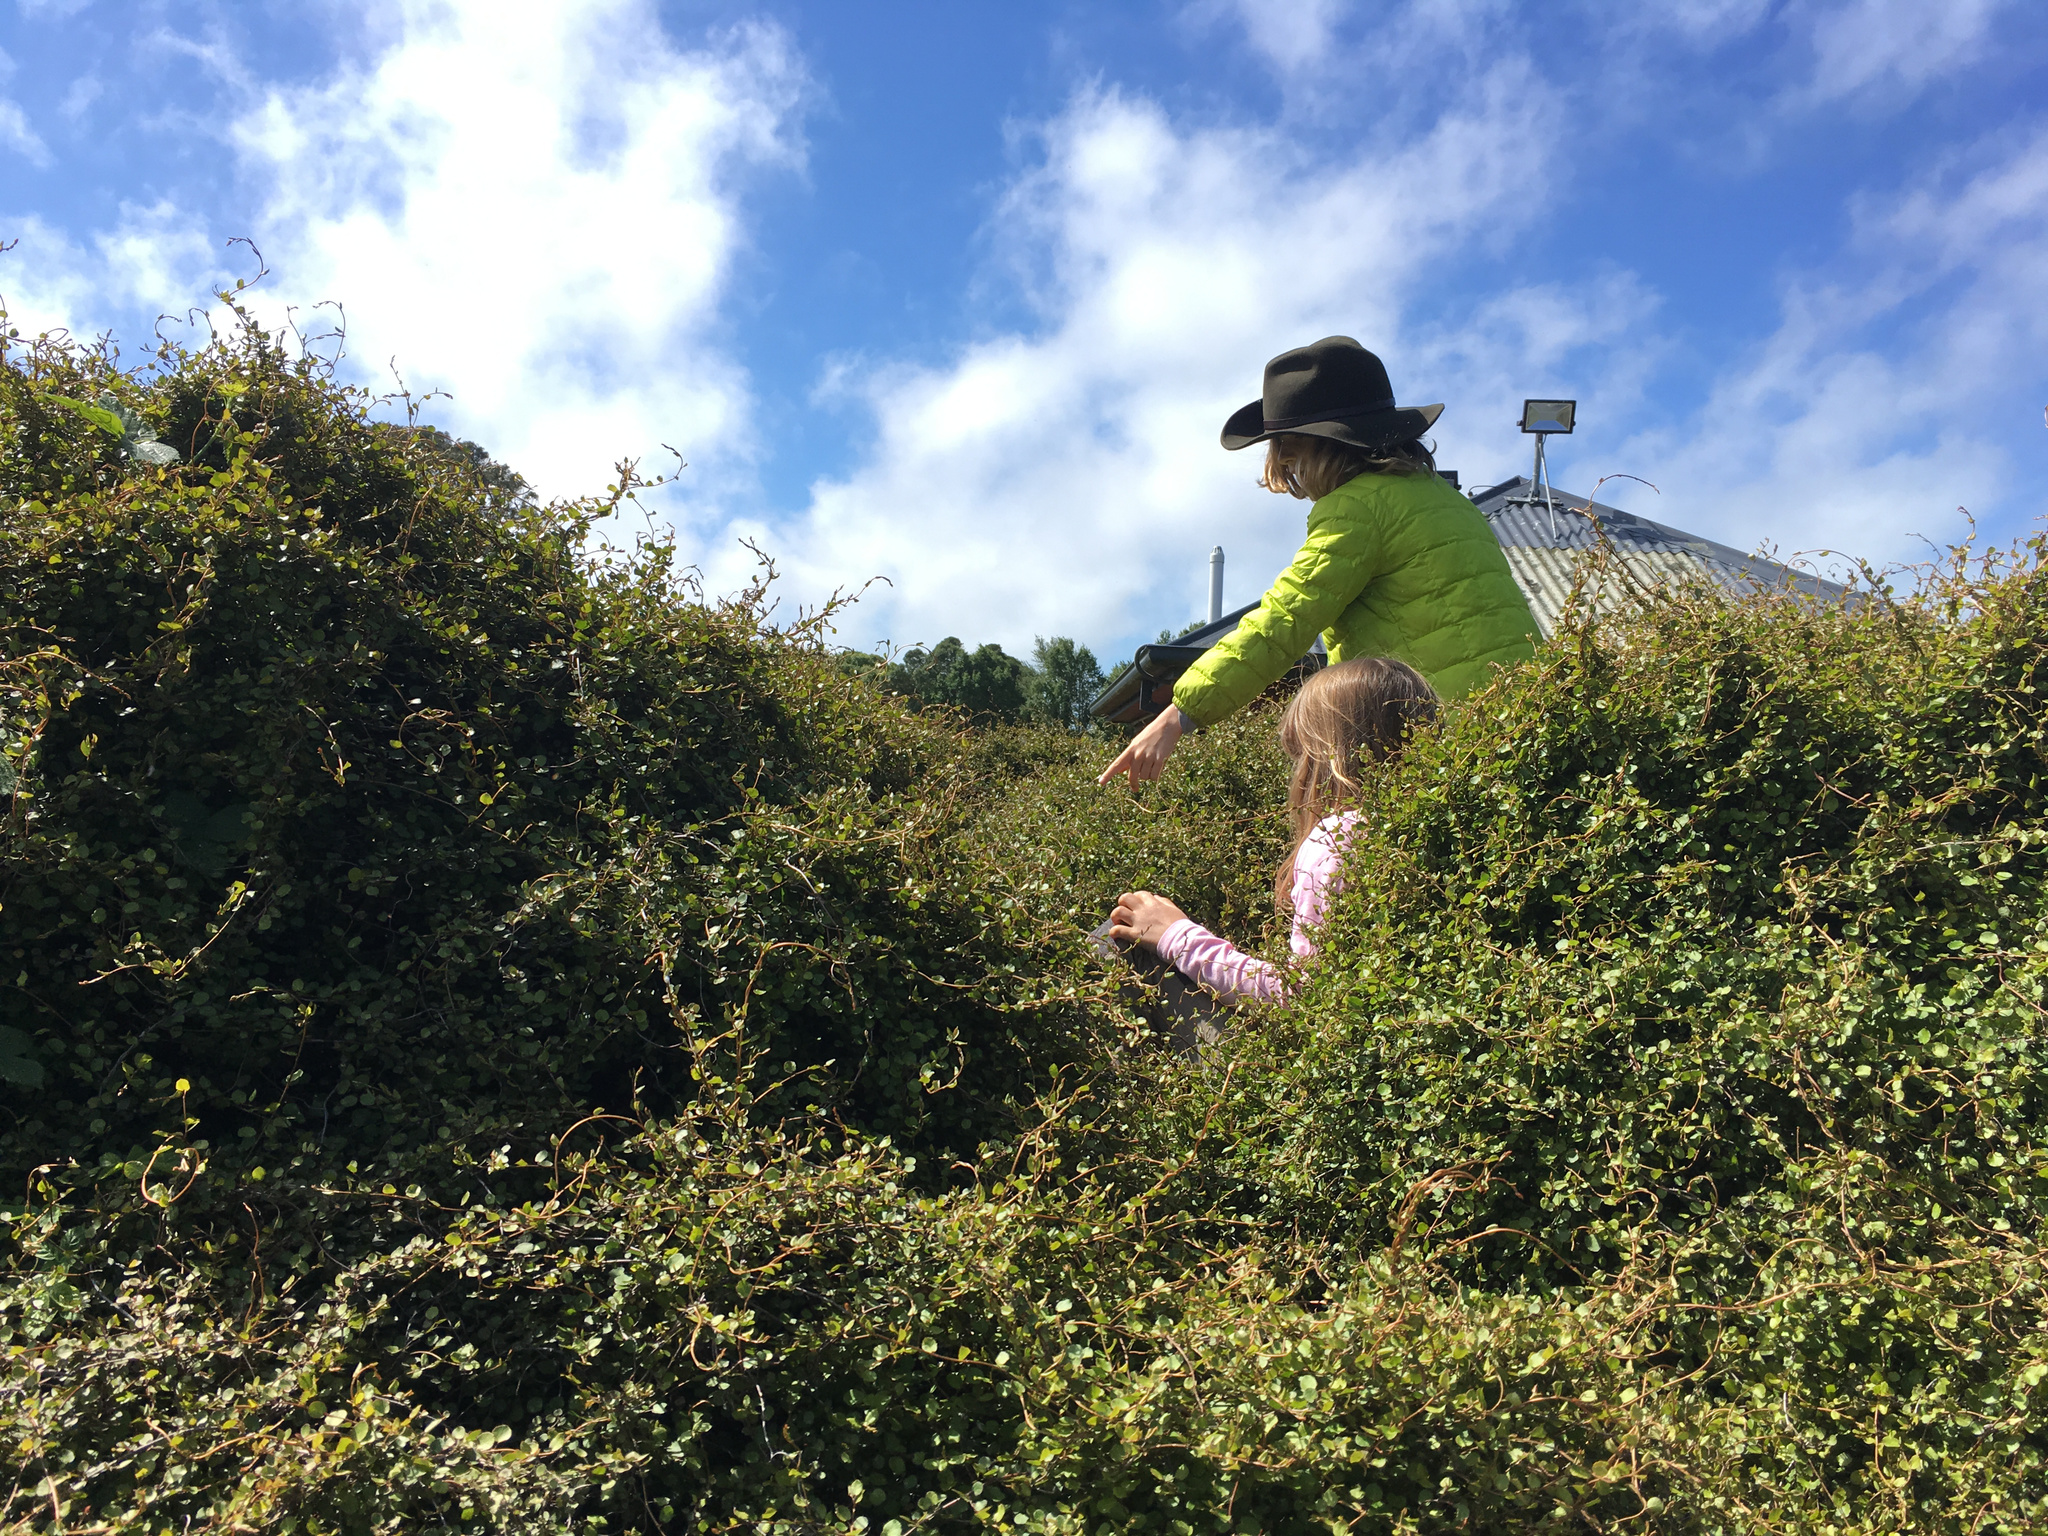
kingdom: Plantae
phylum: Tracheophyta
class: Magnoliopsida
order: Caryophyllales
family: Polygonaceae
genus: Muehlenbeckia
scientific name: Muehlenbeckia complexa
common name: Wireplant
